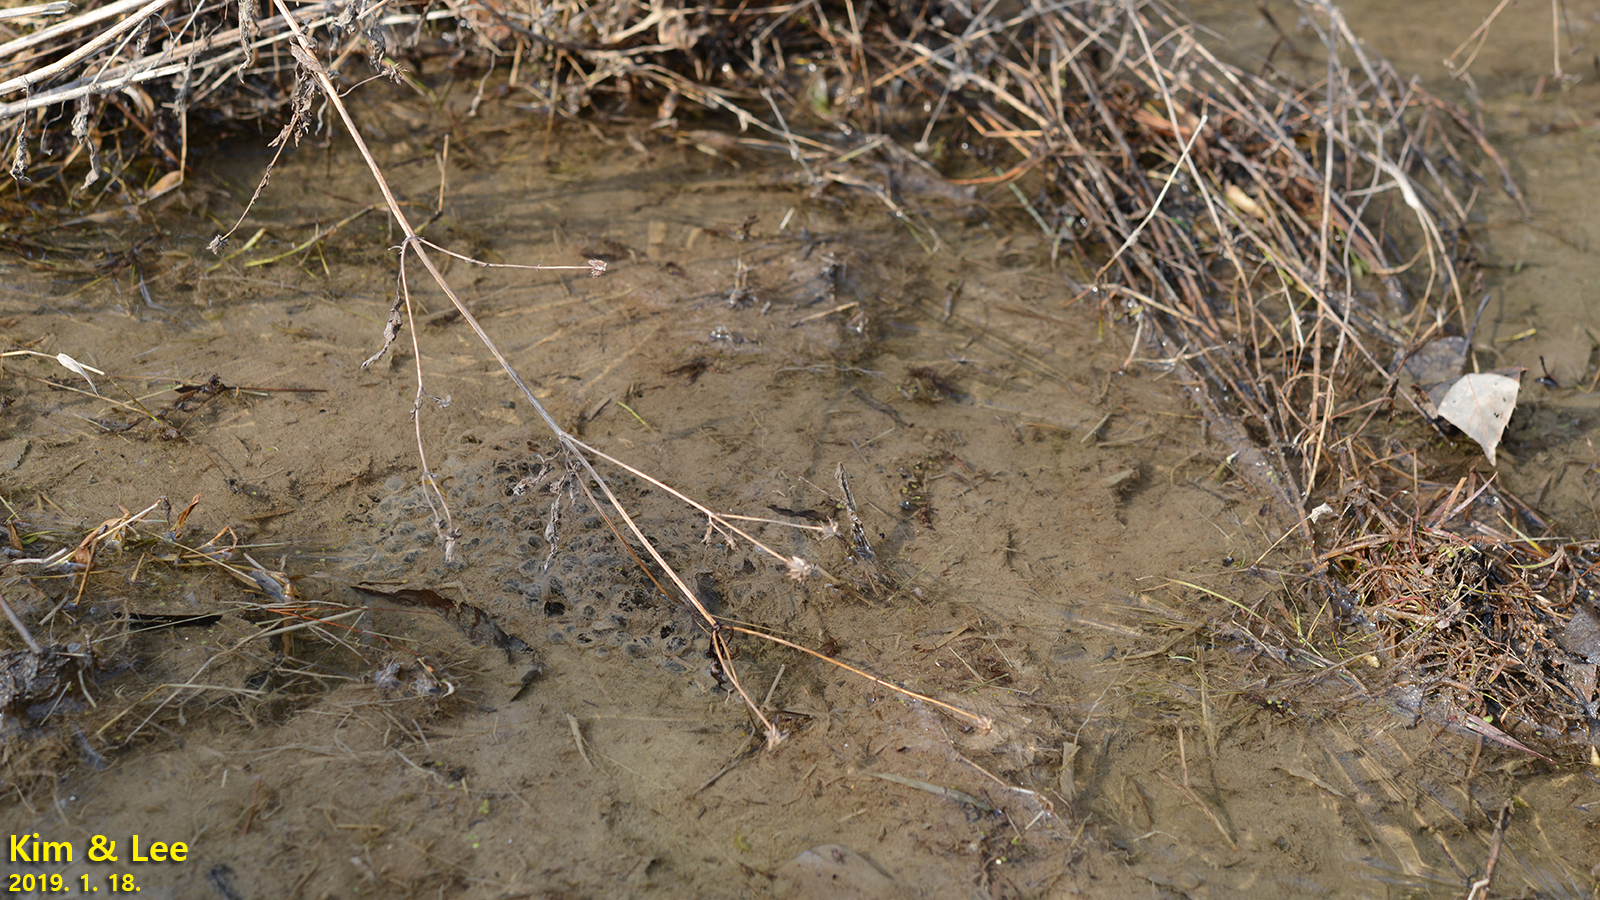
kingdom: Animalia
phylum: Chordata
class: Amphibia
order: Anura
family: Ranidae
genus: Rana
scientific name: Rana uenoi
